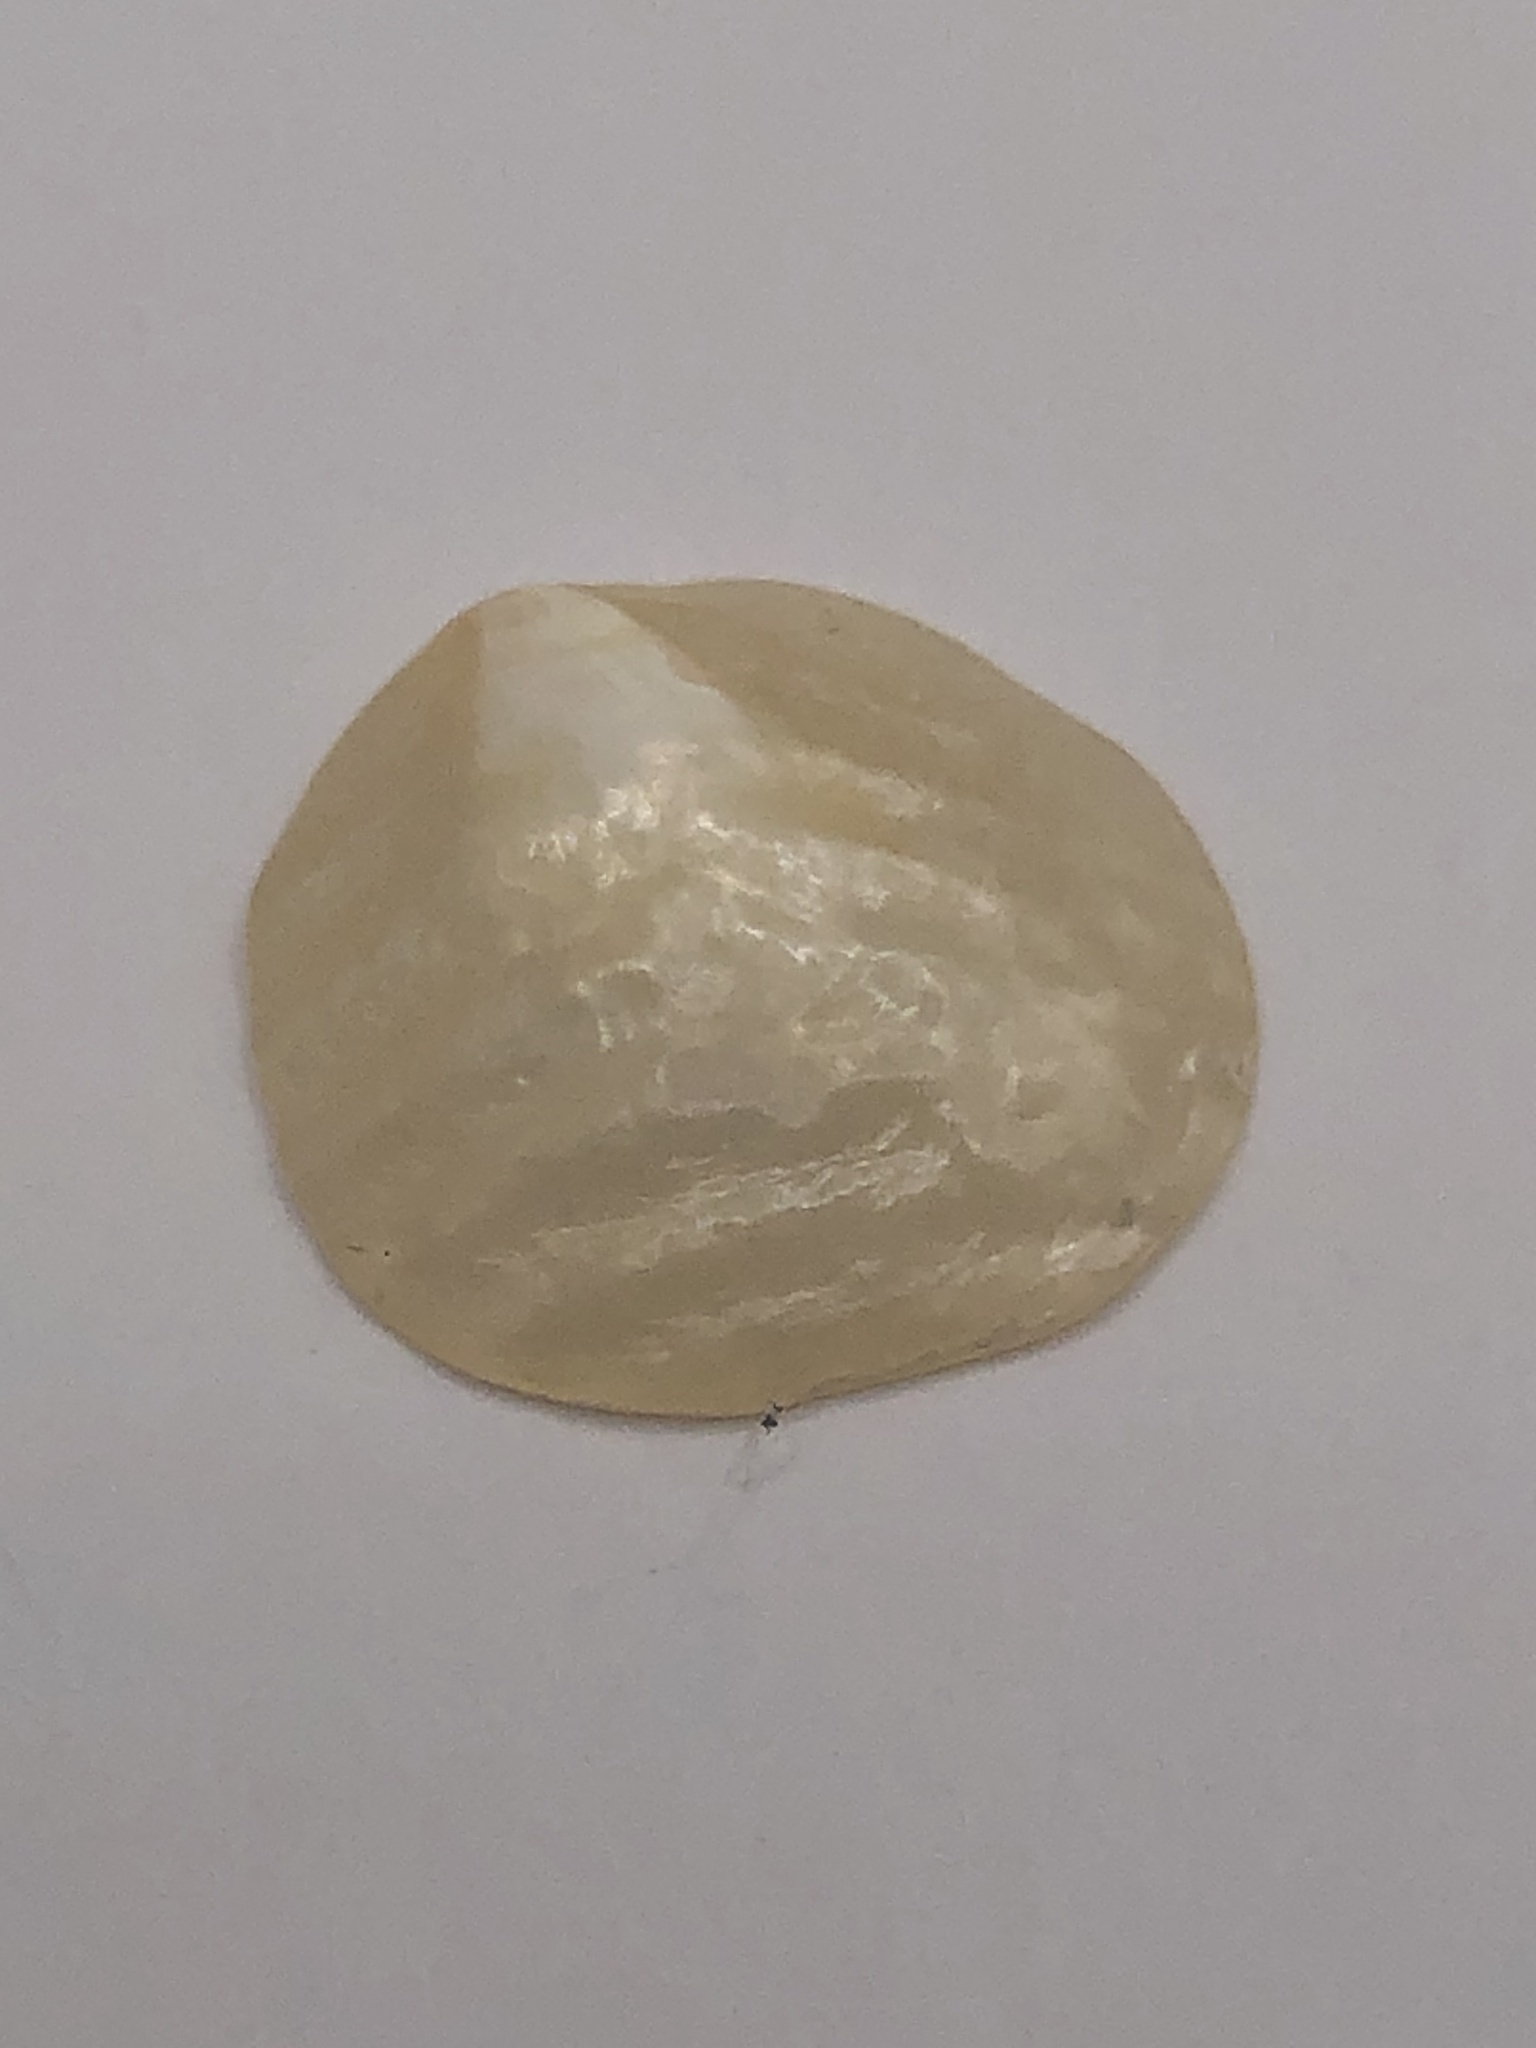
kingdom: Animalia
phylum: Mollusca
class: Bivalvia
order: Pectinida
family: Anomiidae
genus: Anomia
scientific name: Anomia simplex
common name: Common jingle shell
